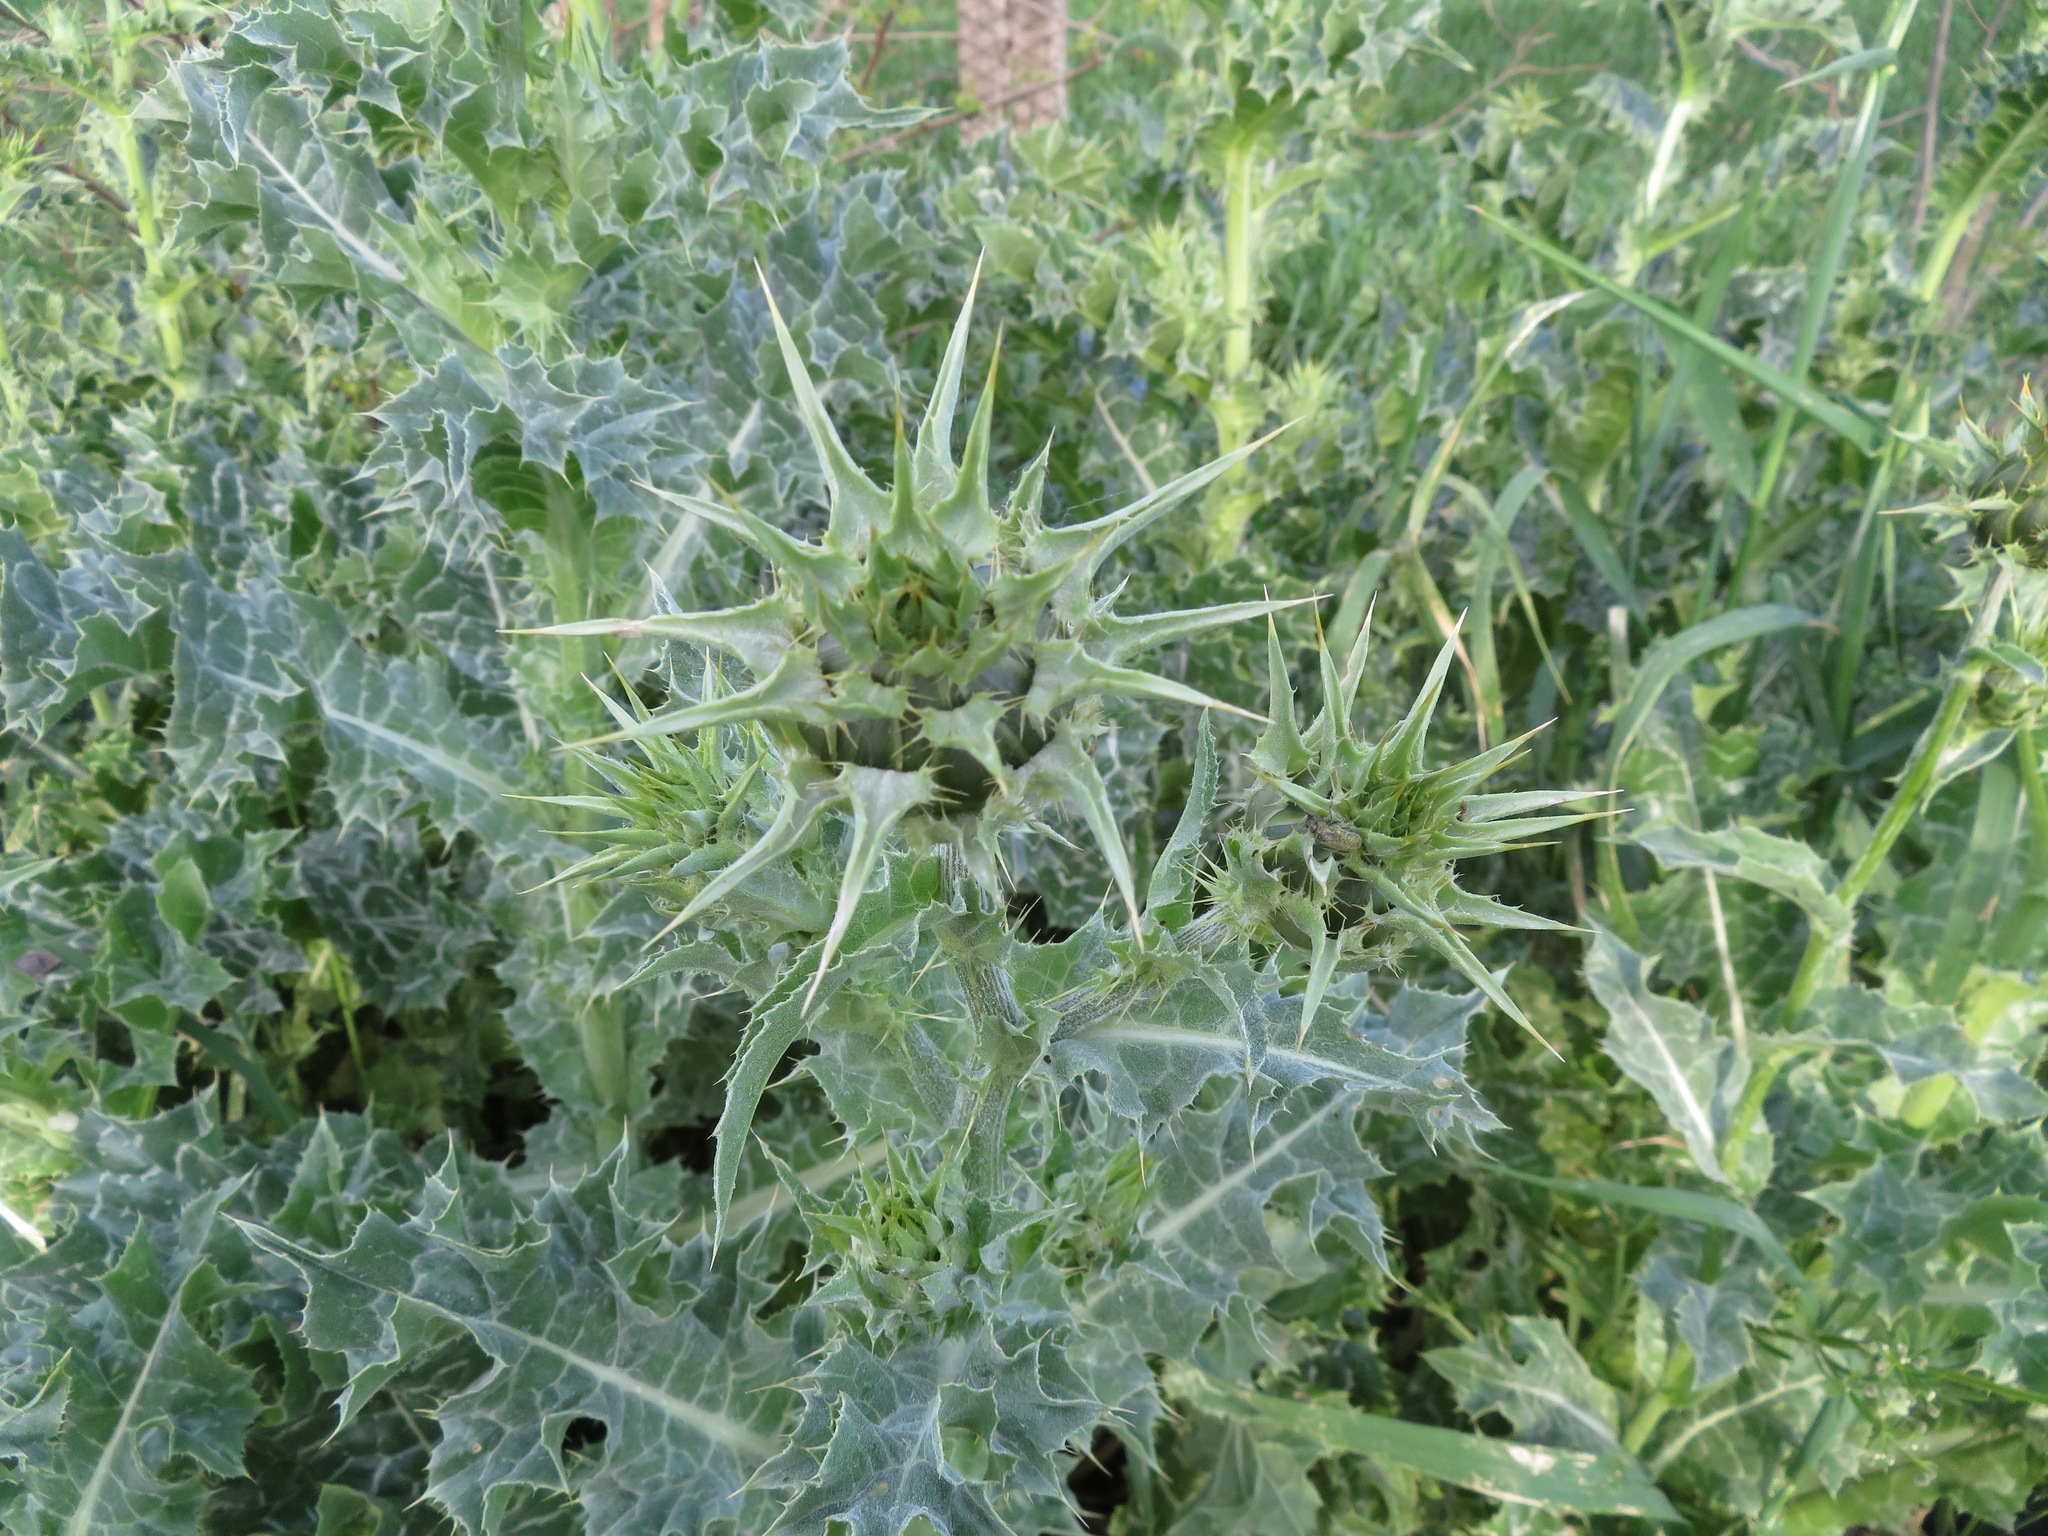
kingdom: Plantae
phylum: Tracheophyta
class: Magnoliopsida
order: Asterales
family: Asteraceae
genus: Silybum
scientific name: Silybum marianum
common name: Milk thistle
